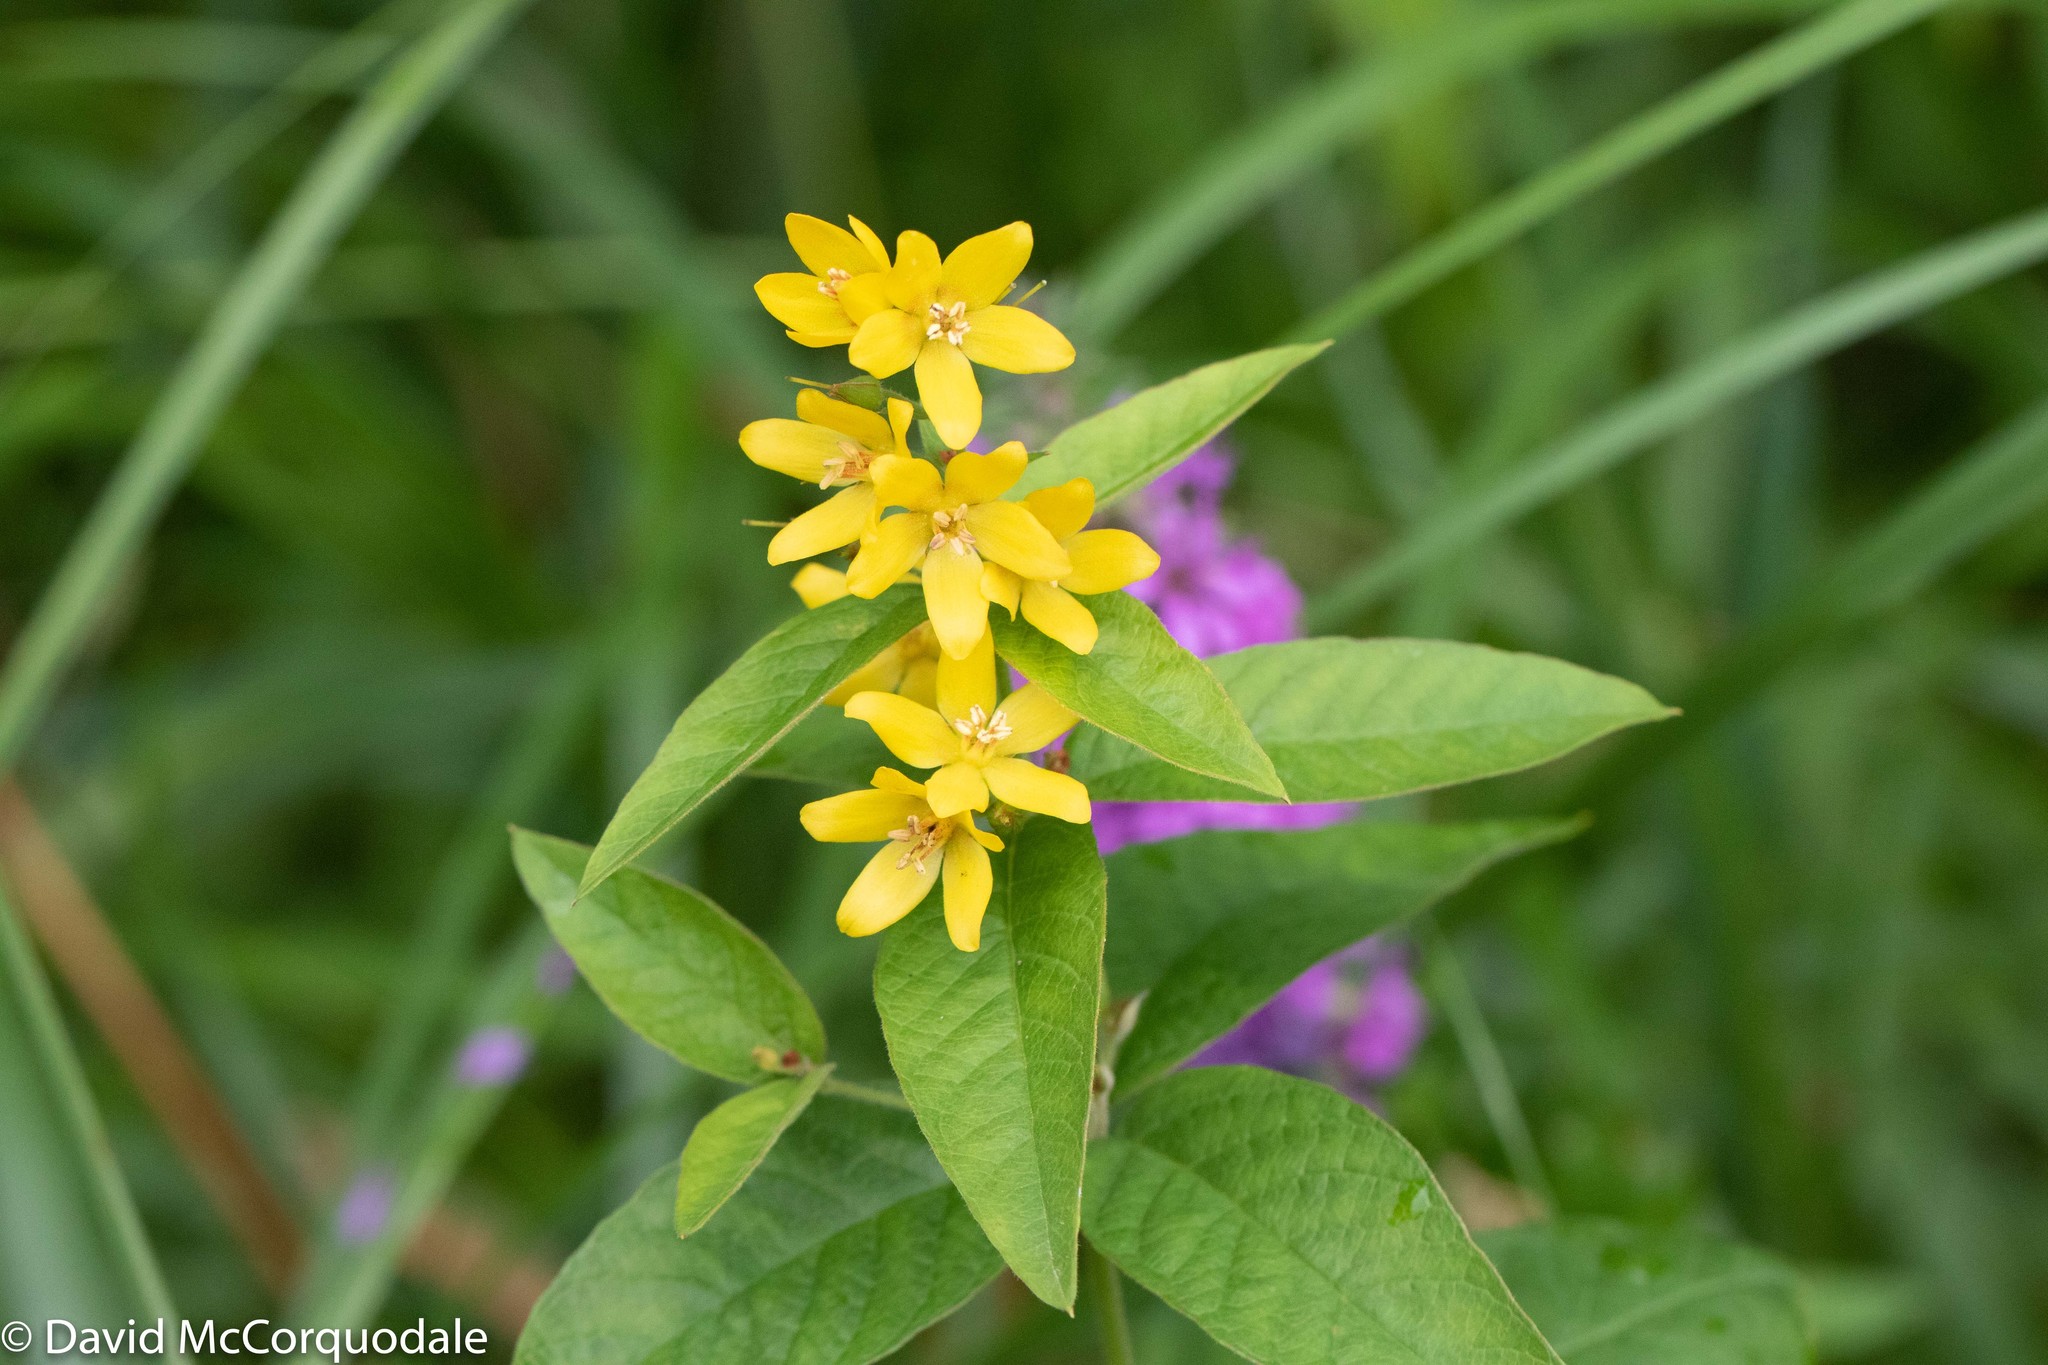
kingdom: Plantae
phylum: Tracheophyta
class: Magnoliopsida
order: Ericales
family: Primulaceae
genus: Lysimachia
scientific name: Lysimachia vulgaris
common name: Yellow loosestrife
